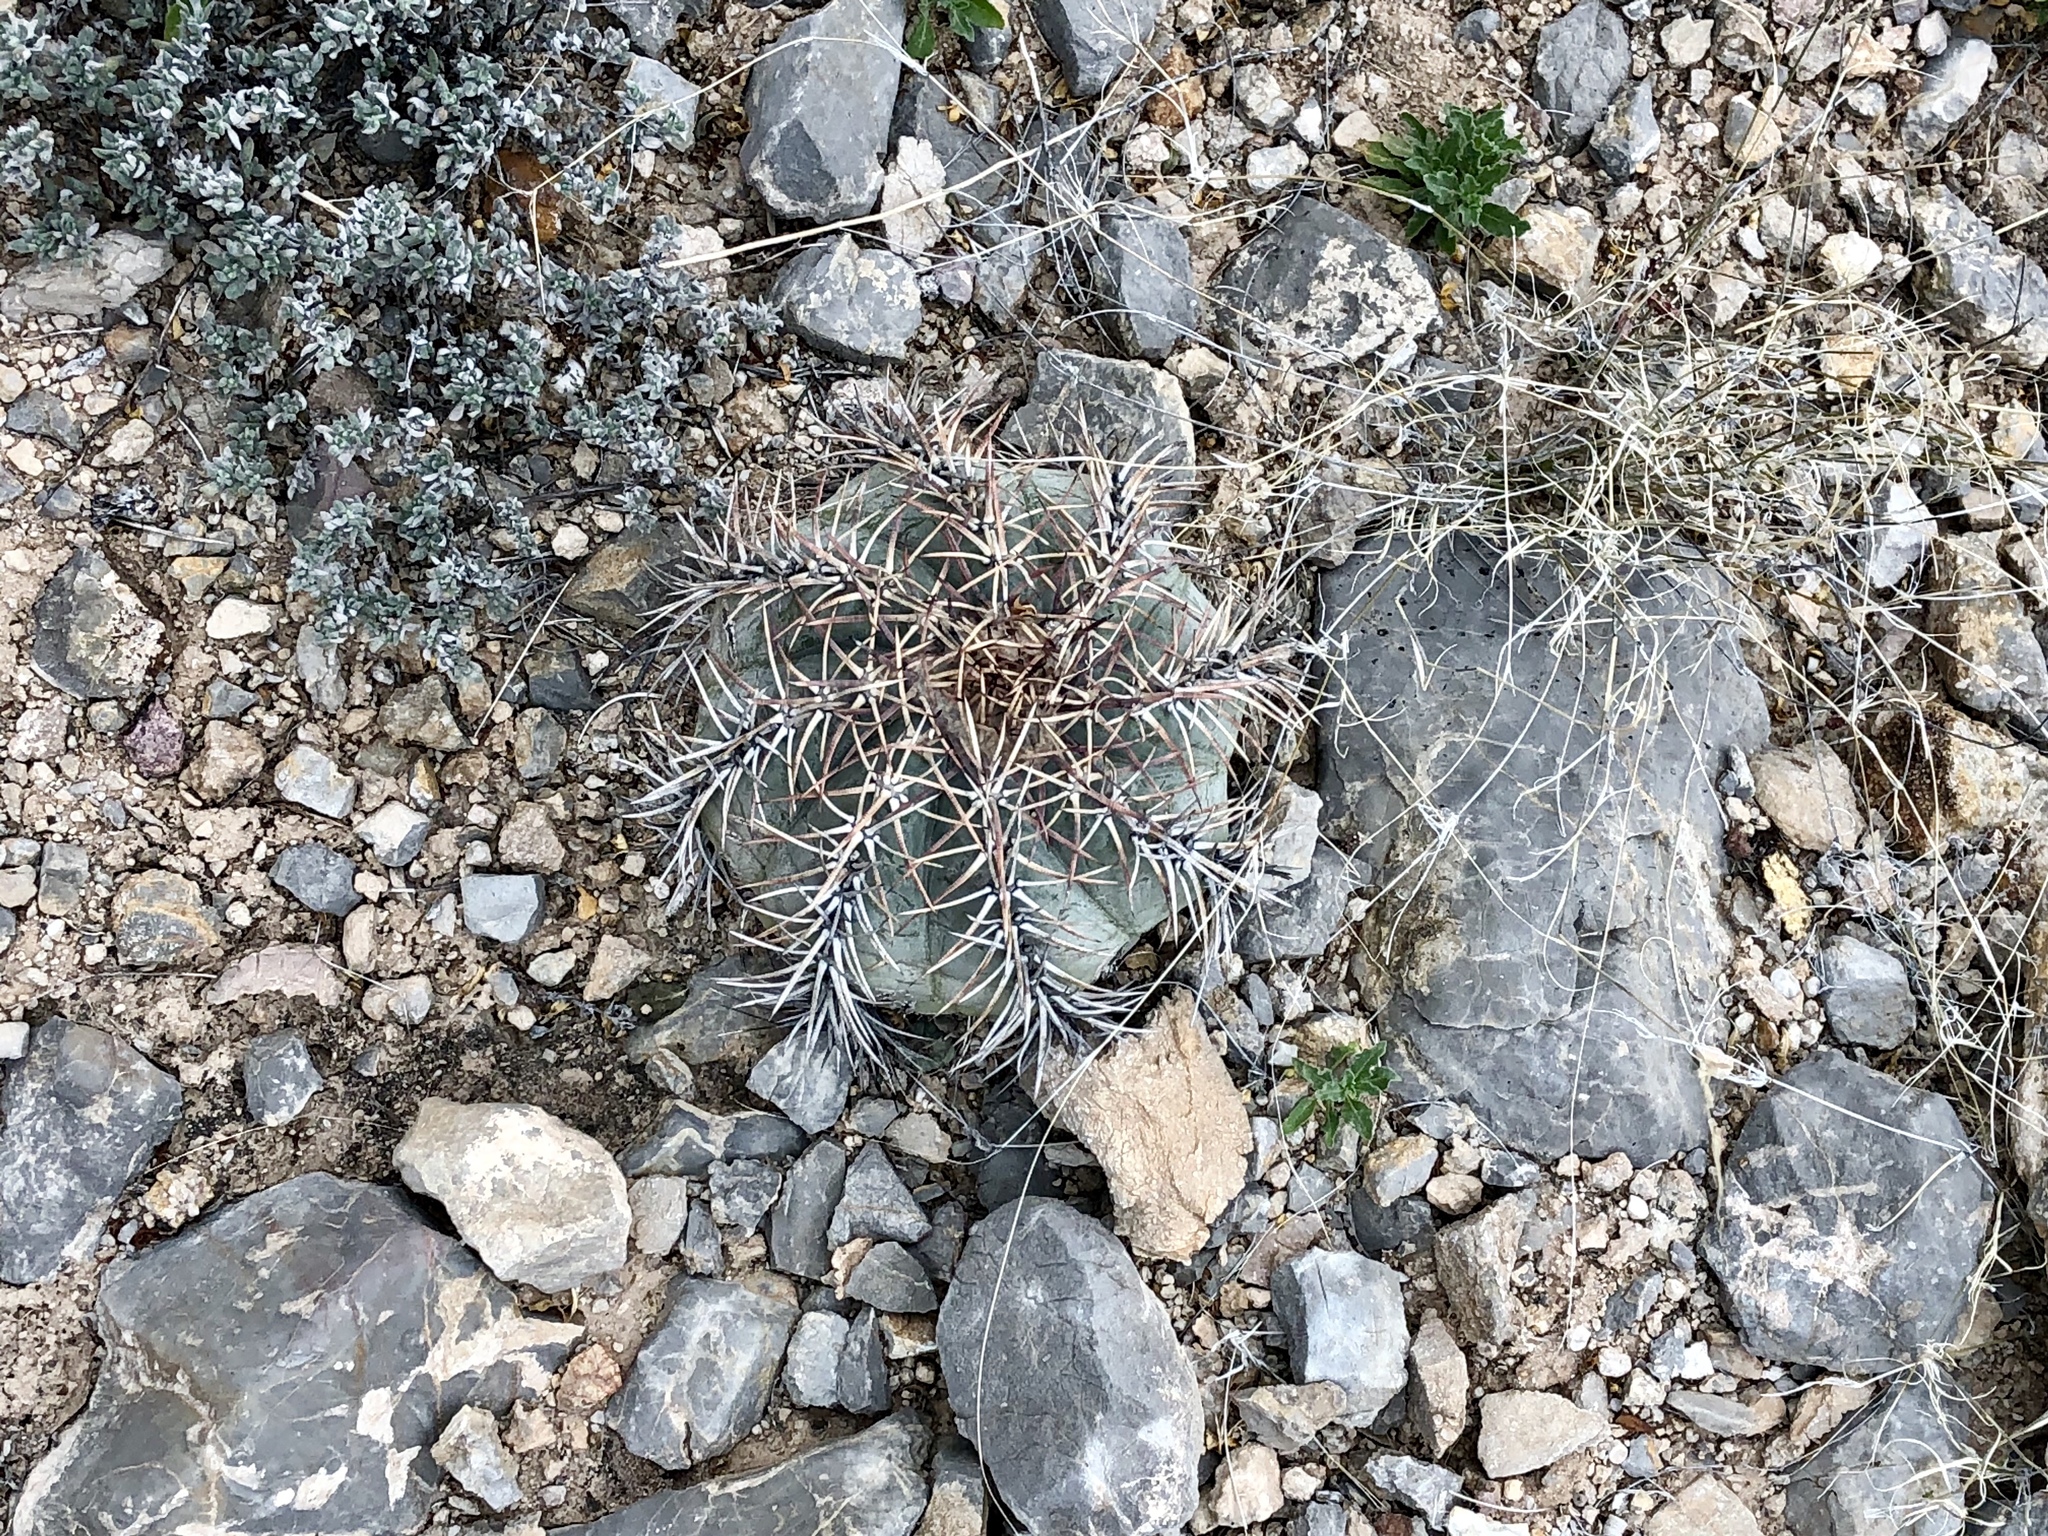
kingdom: Plantae
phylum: Tracheophyta
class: Magnoliopsida
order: Caryophyllales
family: Cactaceae
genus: Echinocactus
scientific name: Echinocactus horizonthalonius
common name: Devilshead
